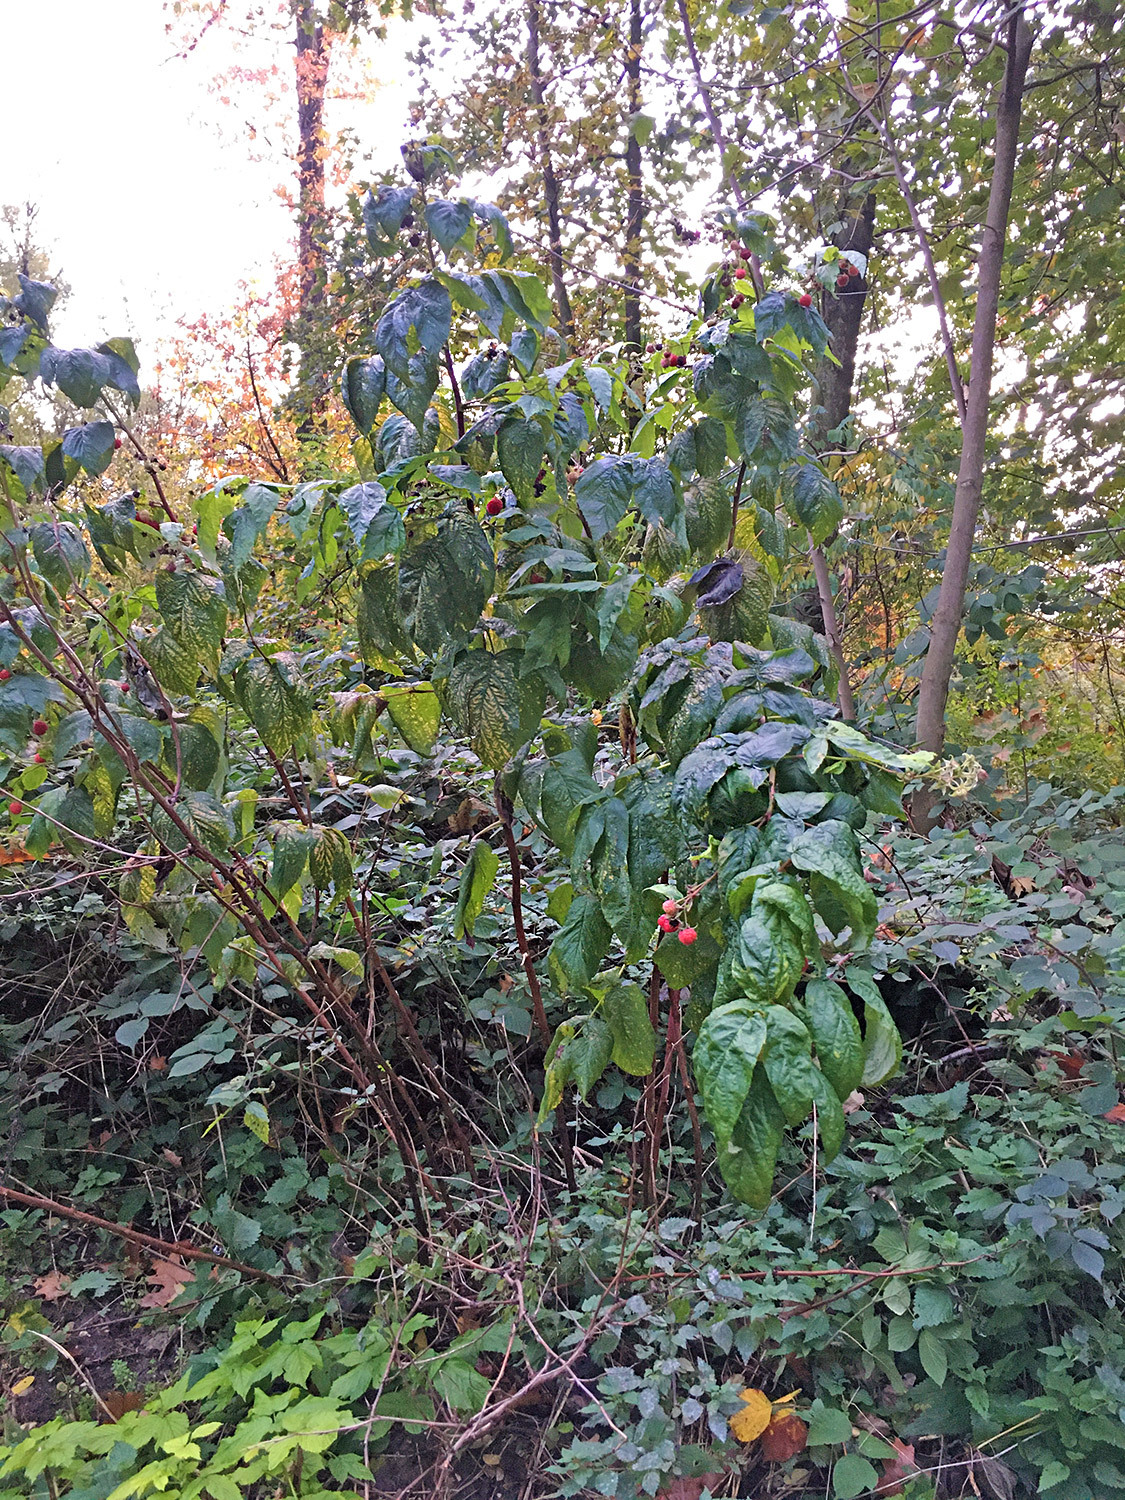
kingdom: Plantae
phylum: Tracheophyta
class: Magnoliopsida
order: Rosales
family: Rosaceae
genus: Rubus
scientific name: Rubus idaeus
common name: Raspberry
